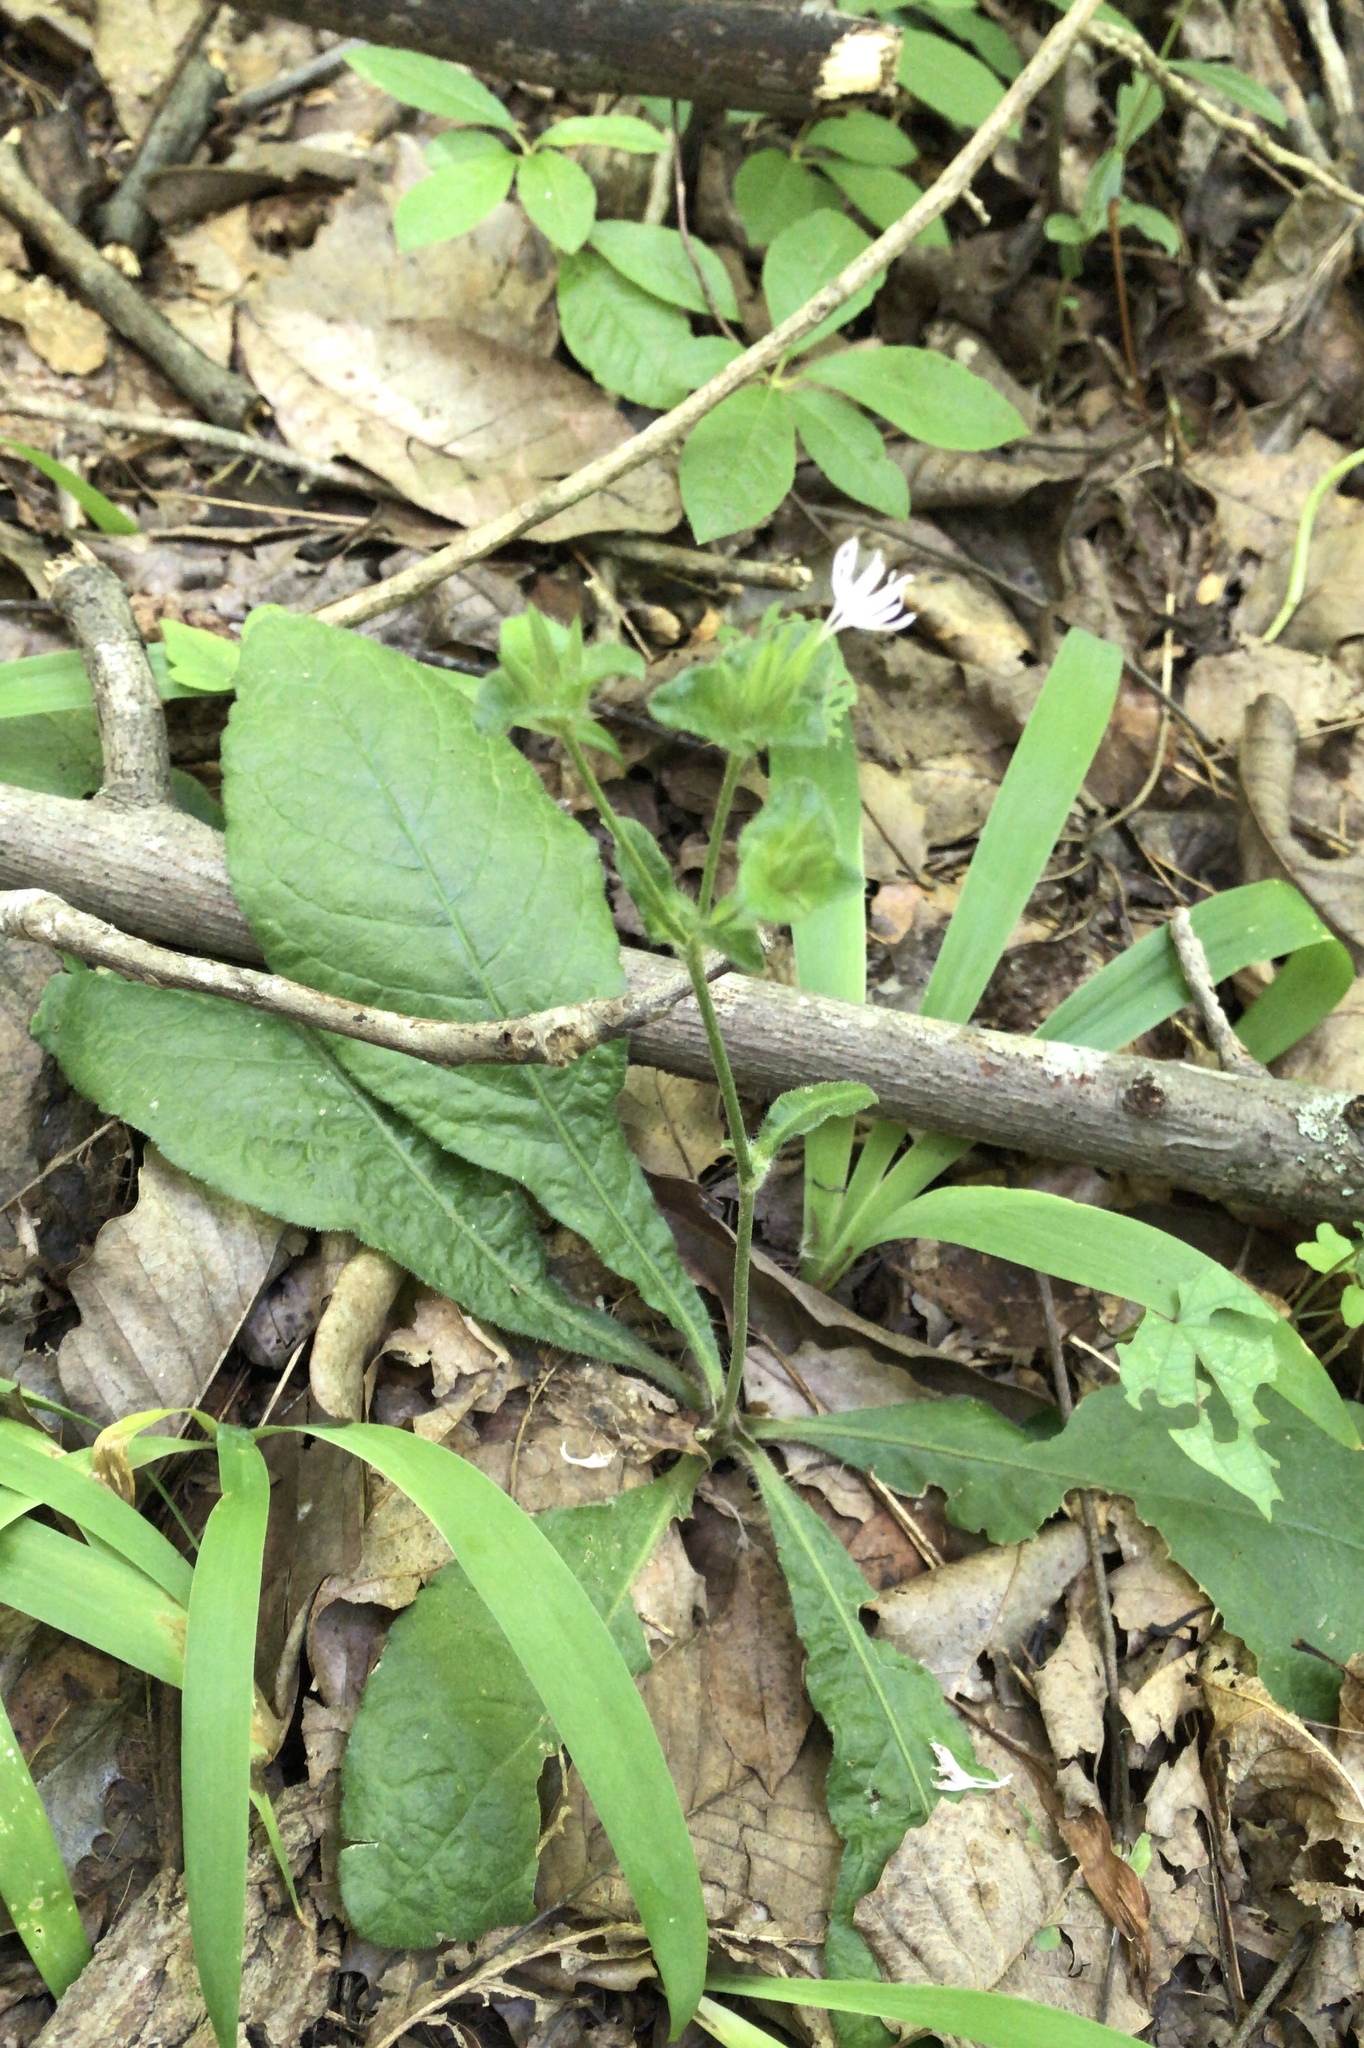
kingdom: Plantae
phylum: Tracheophyta
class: Magnoliopsida
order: Asterales
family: Asteraceae
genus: Elephantopus
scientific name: Elephantopus tomentosus
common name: Tobacco-weed
